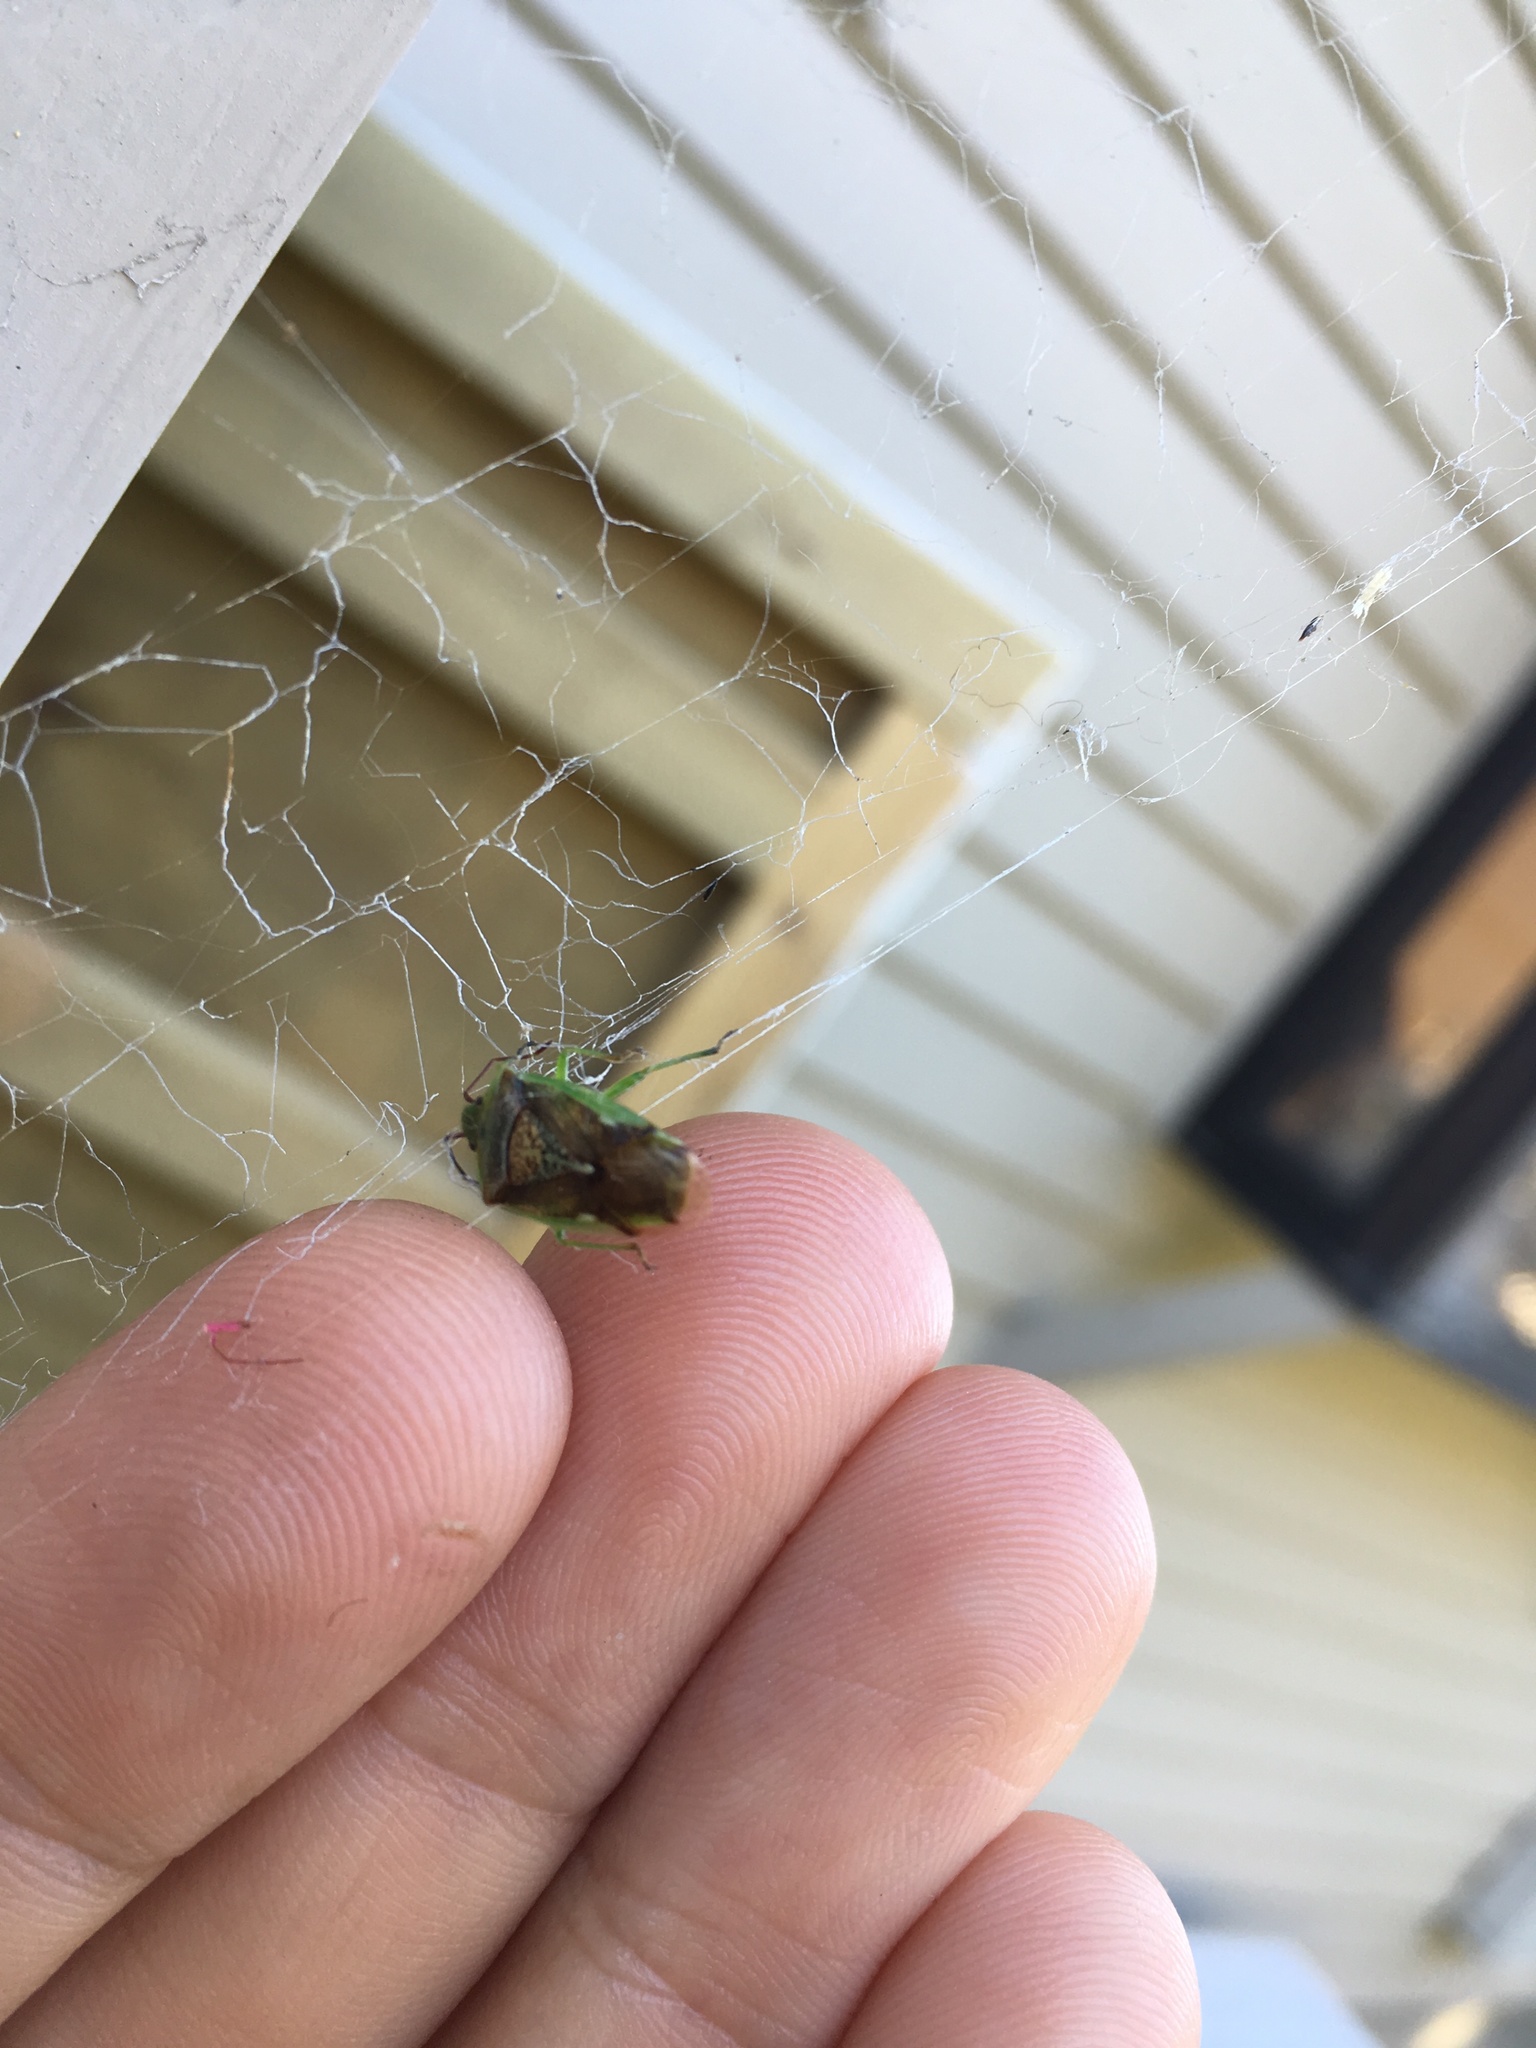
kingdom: Animalia
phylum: Arthropoda
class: Insecta
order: Hemiptera
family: Acanthosomatidae
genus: Oncacontias
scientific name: Oncacontias vittatus
